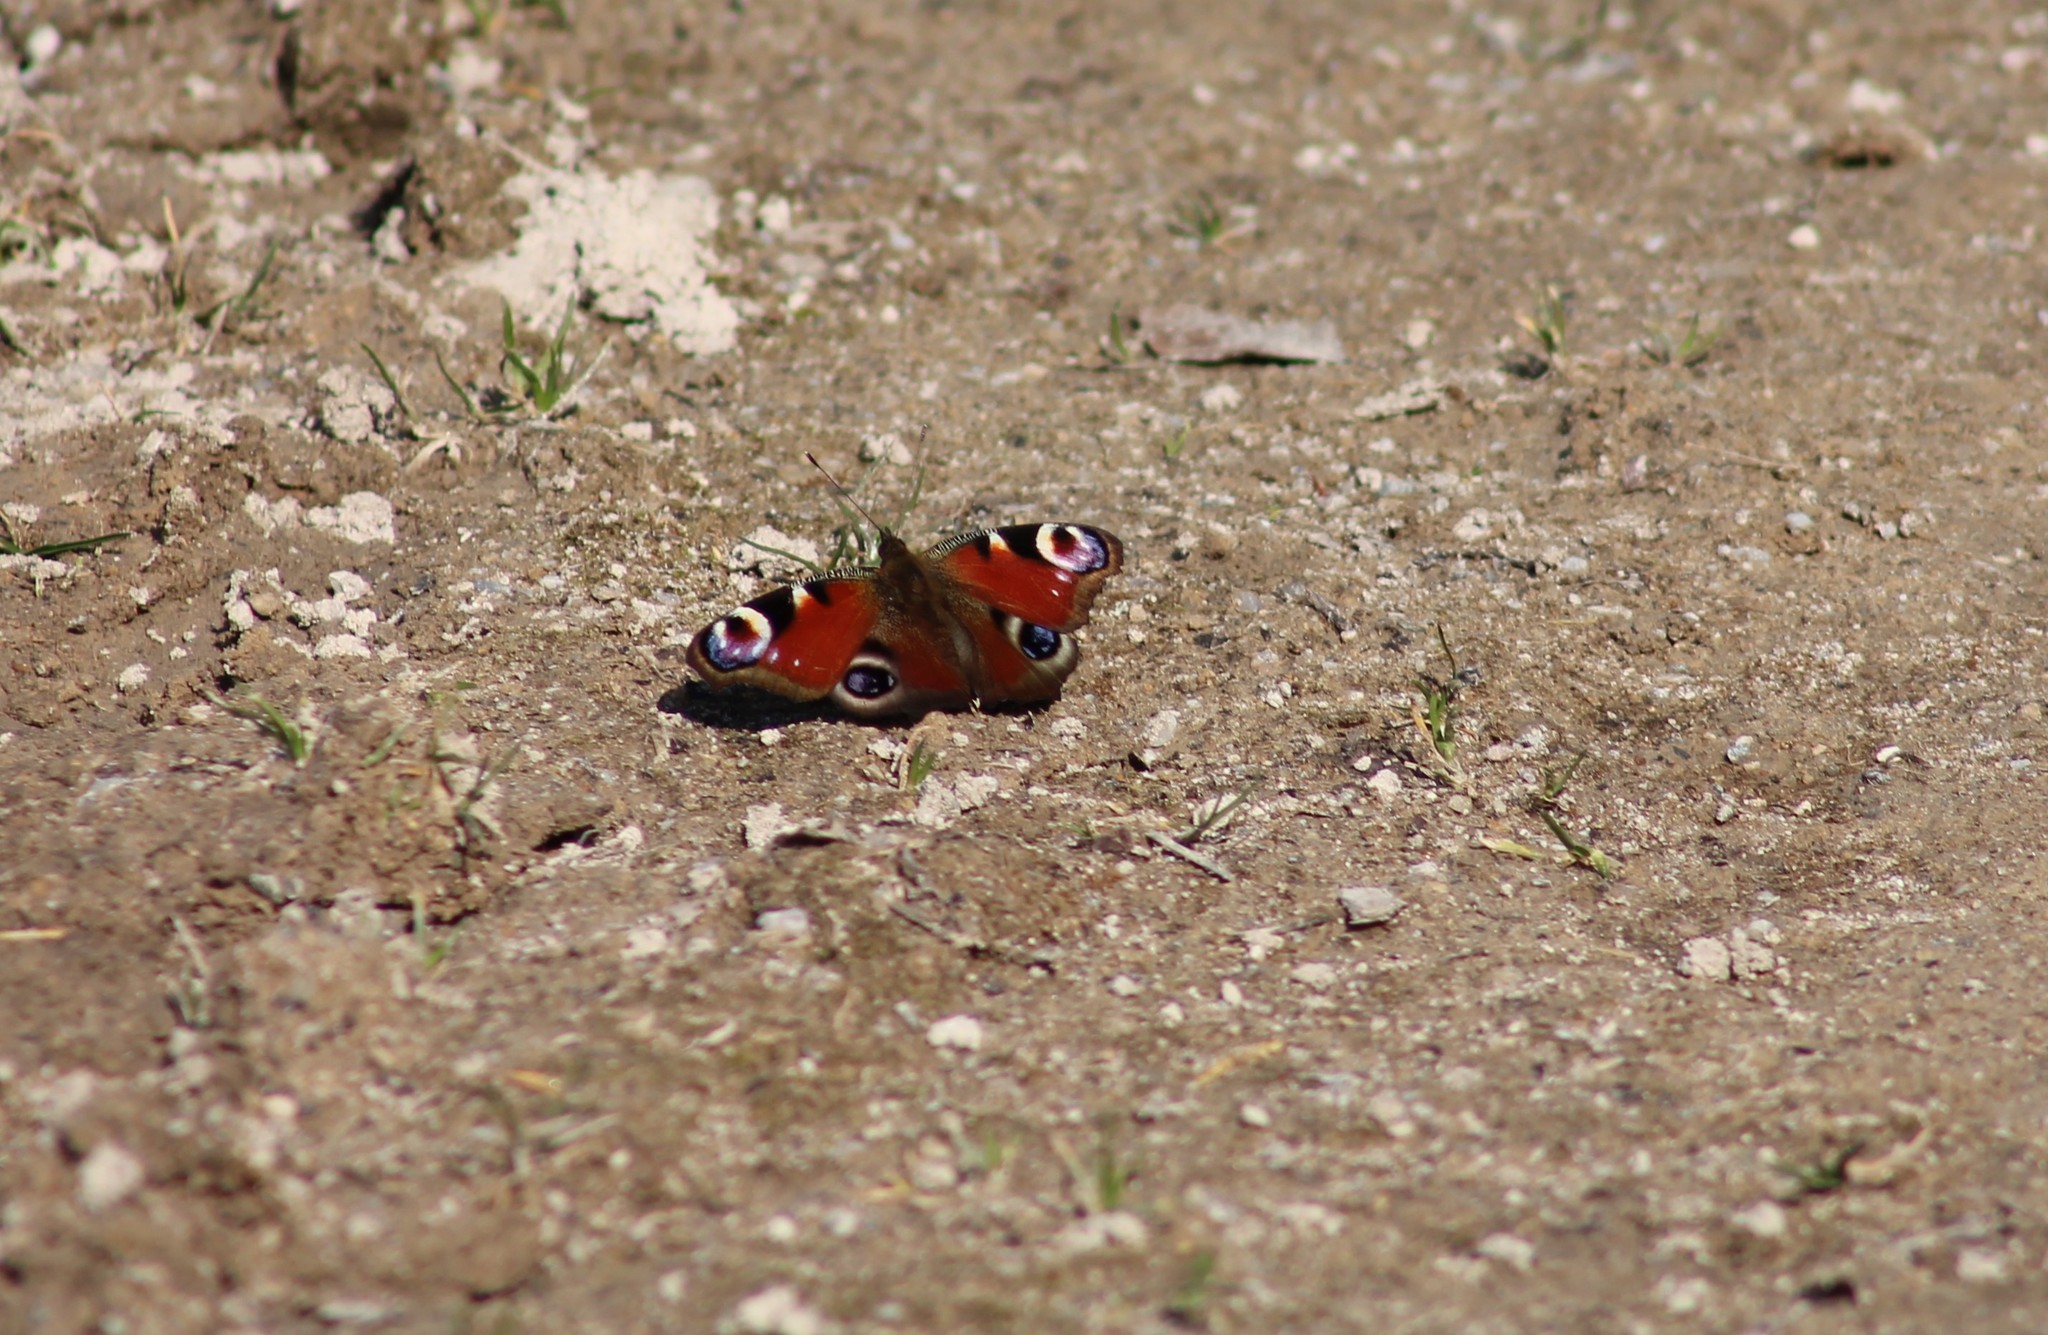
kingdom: Animalia
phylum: Arthropoda
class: Insecta
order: Lepidoptera
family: Nymphalidae
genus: Aglais
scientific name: Aglais io
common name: Peacock
